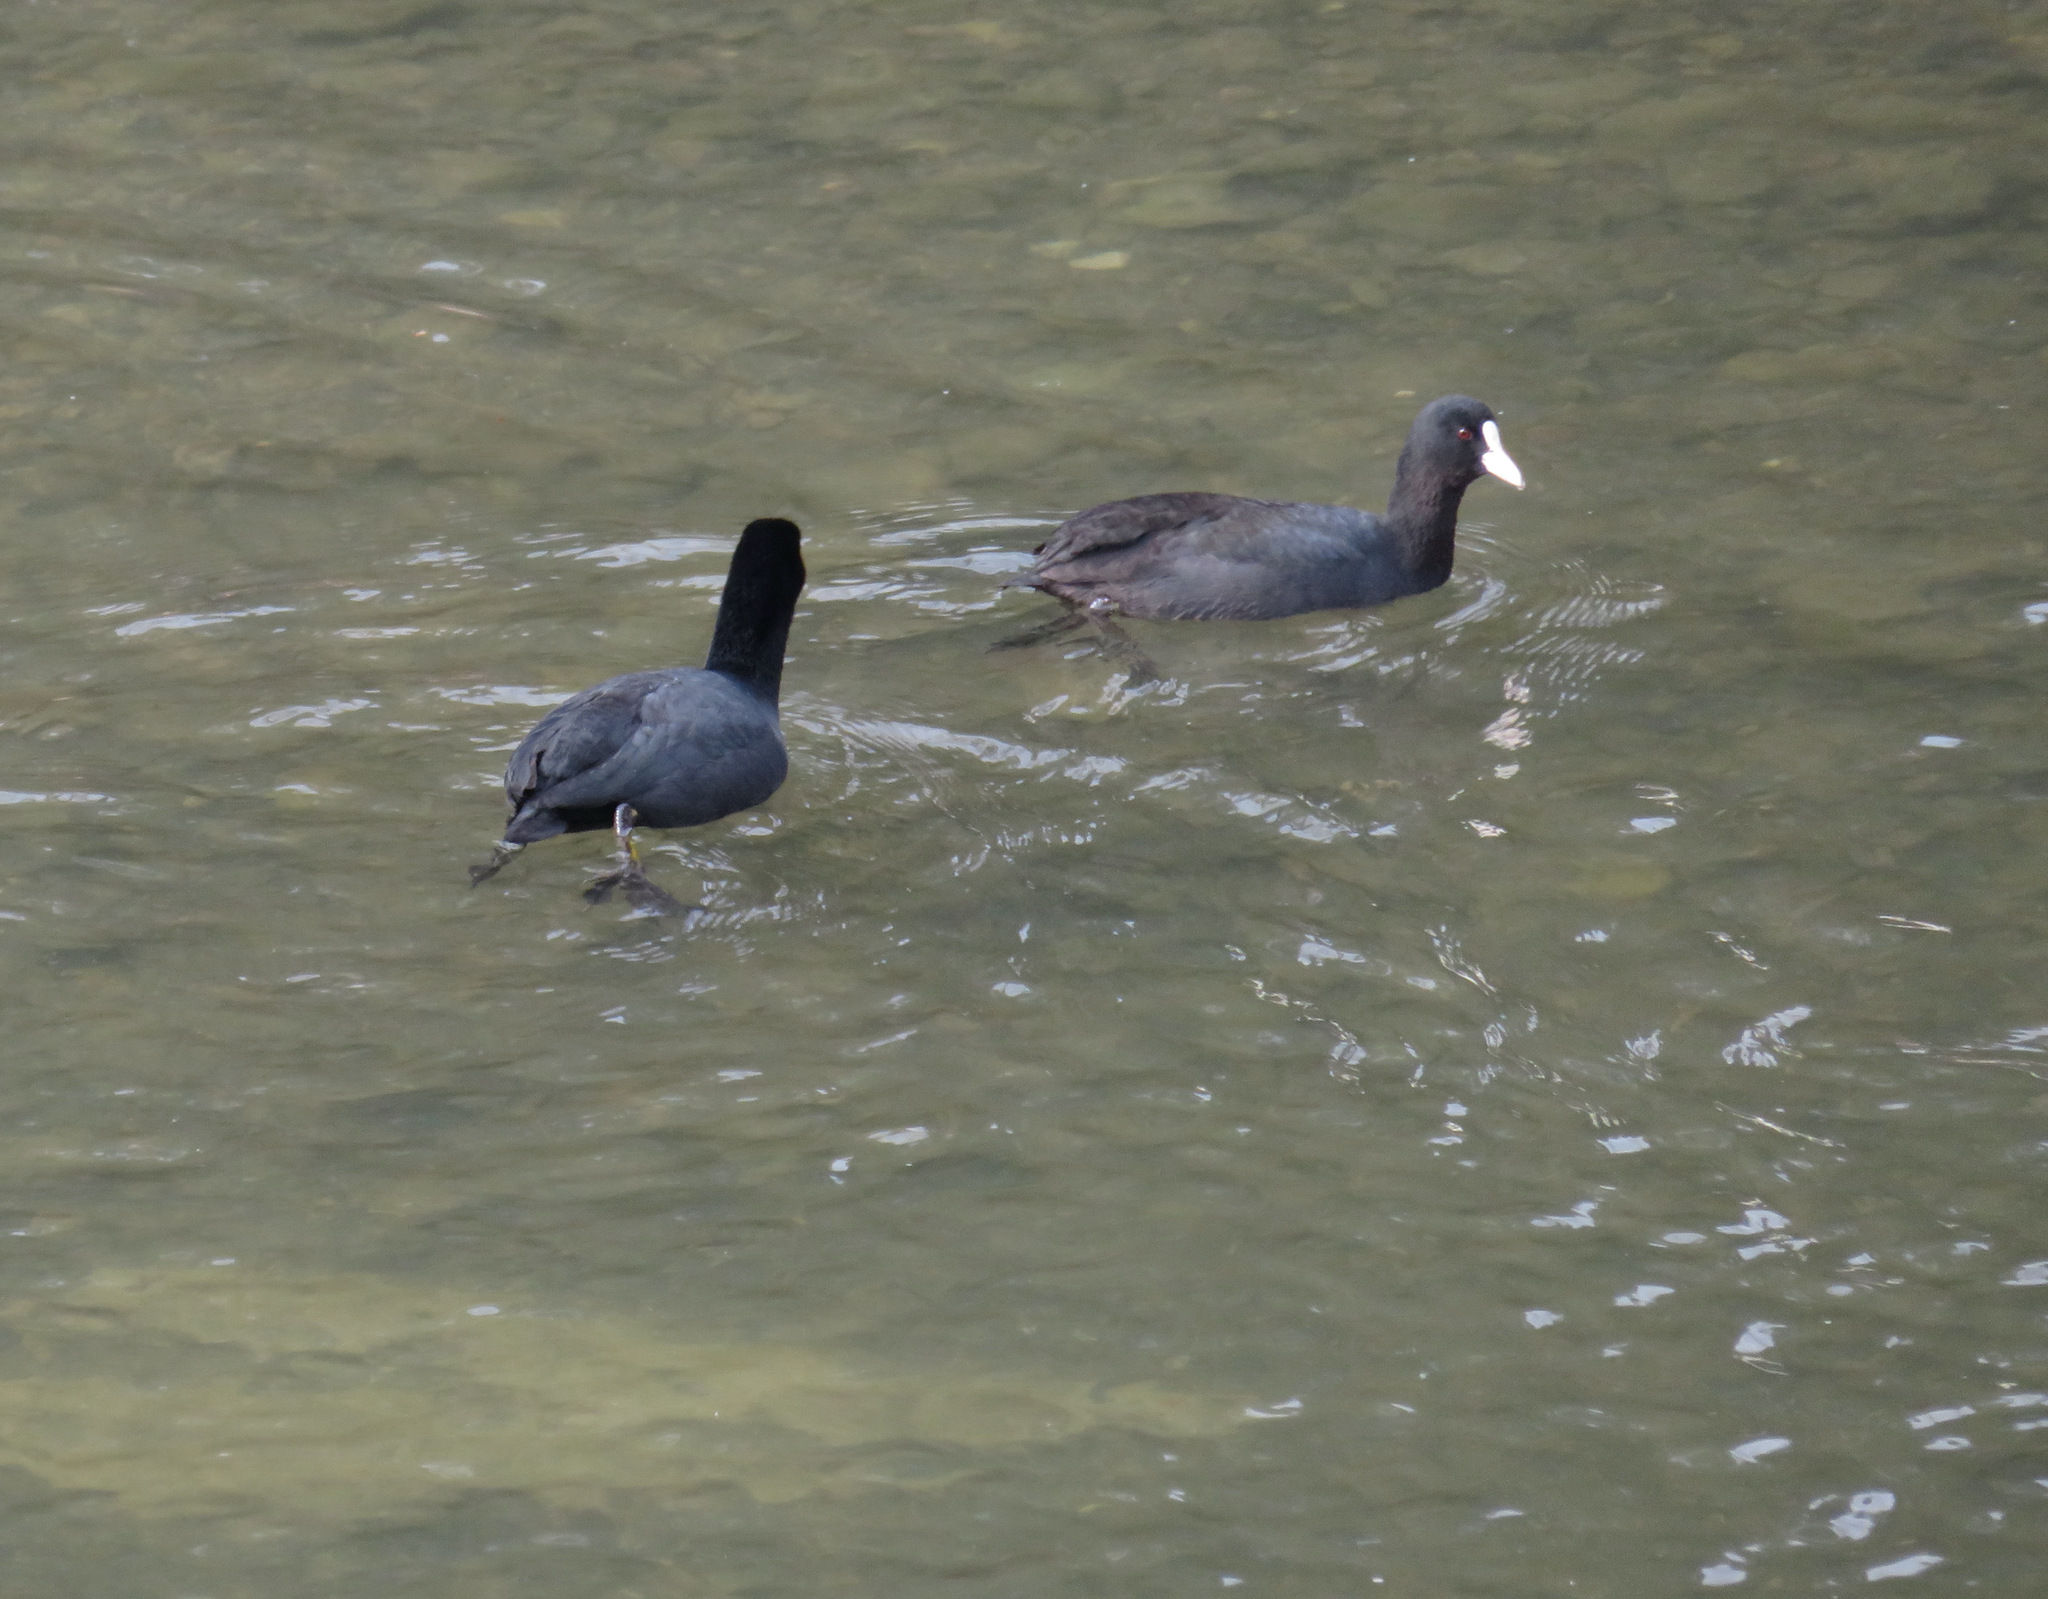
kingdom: Animalia
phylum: Chordata
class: Aves
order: Gruiformes
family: Rallidae
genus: Fulica
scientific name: Fulica atra
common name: Eurasian coot
